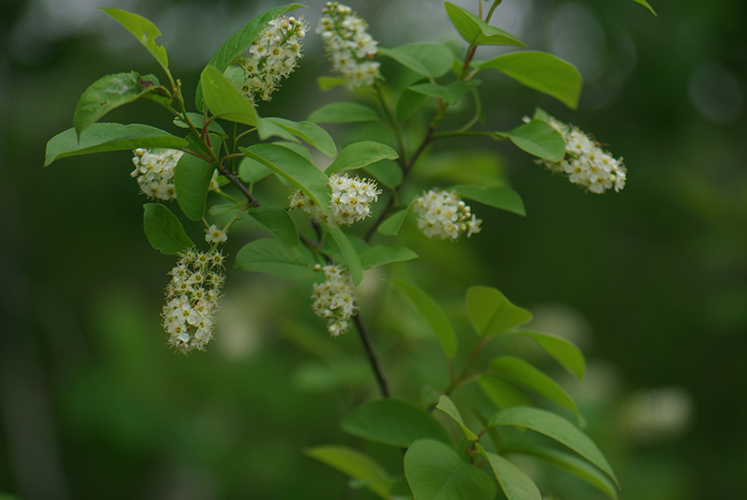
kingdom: Plantae
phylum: Tracheophyta
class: Magnoliopsida
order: Rosales
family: Rosaceae
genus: Prunus
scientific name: Prunus virginiana
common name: Chokecherry
